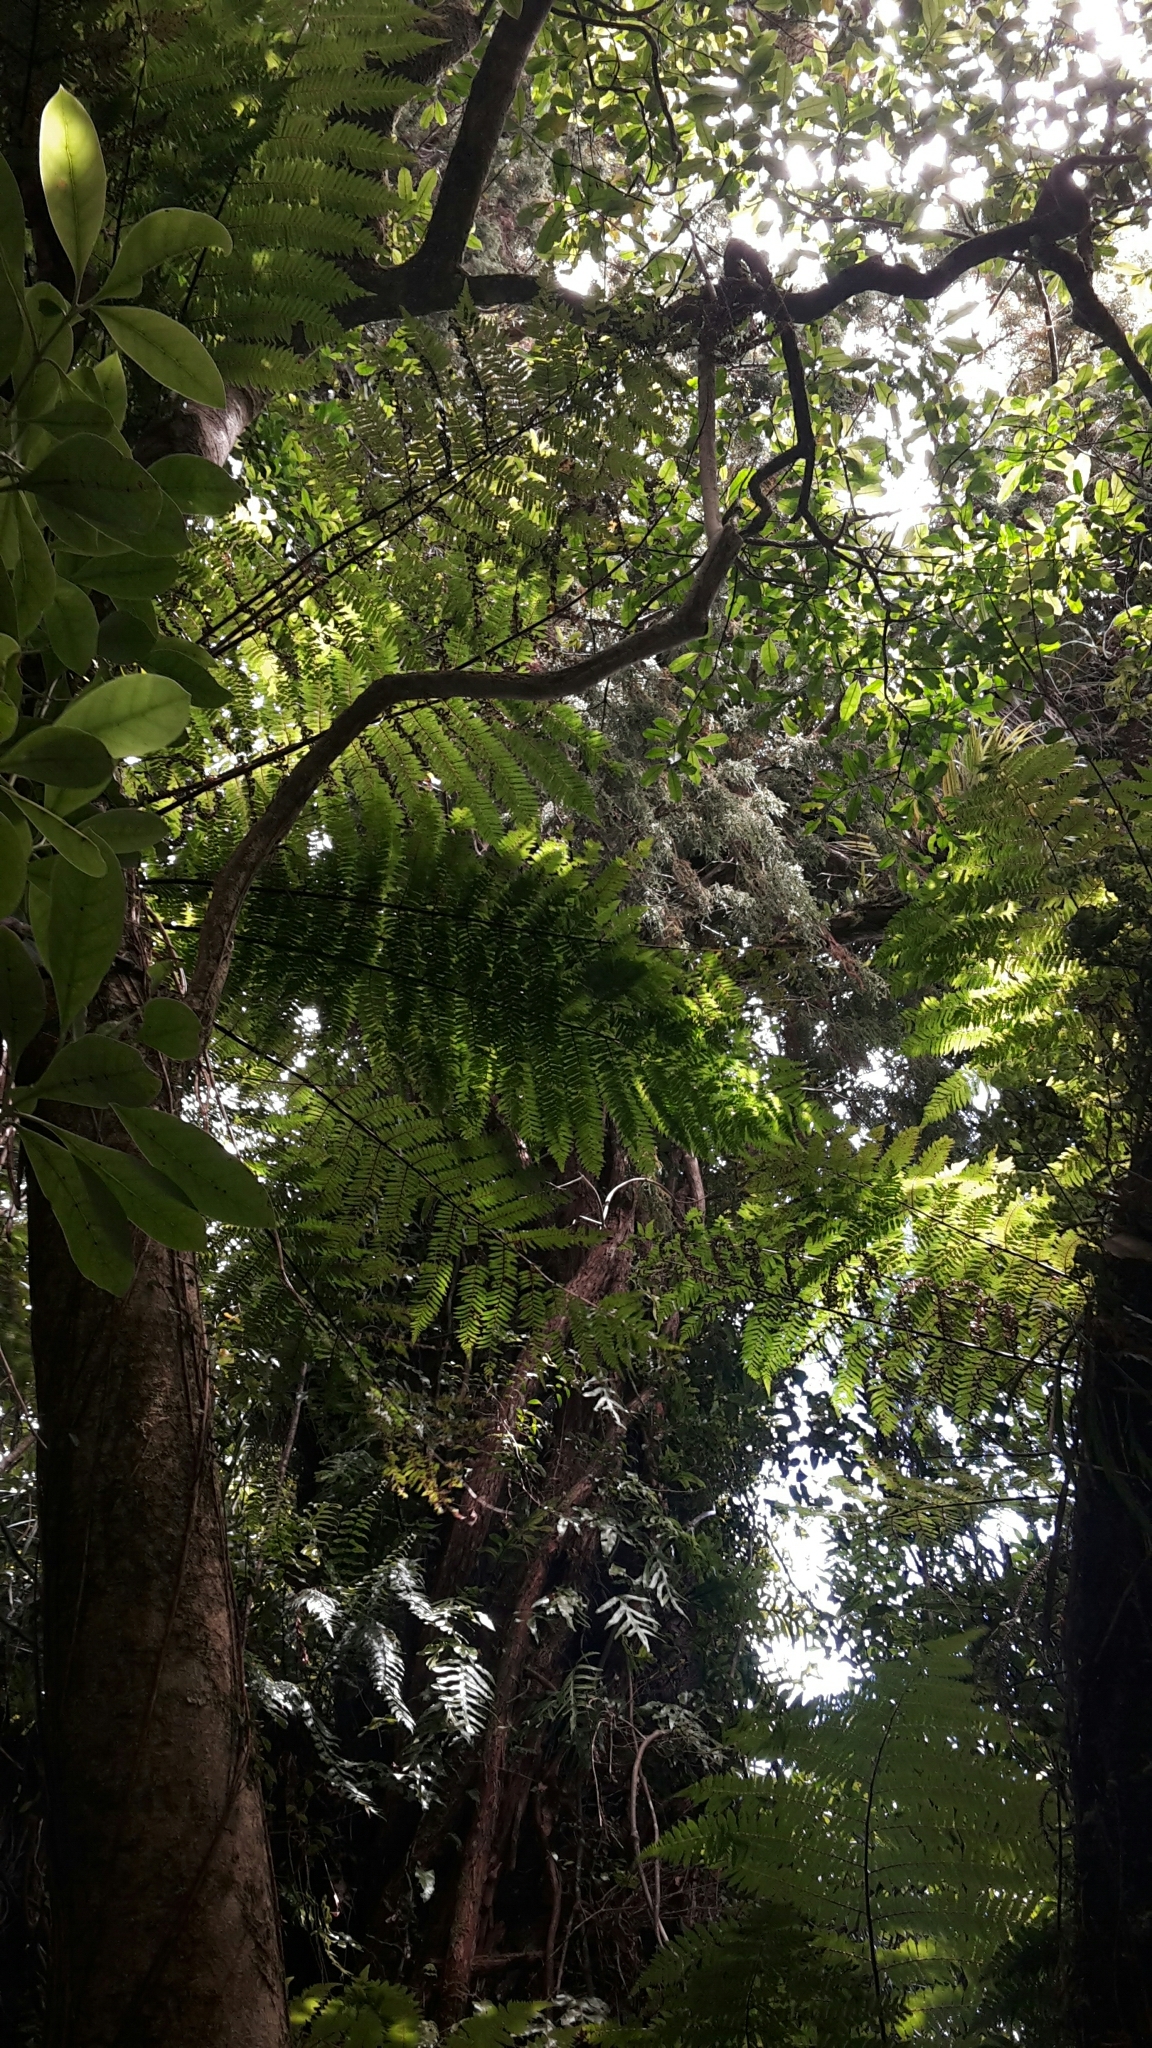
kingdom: Plantae
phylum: Tracheophyta
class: Pinopsida
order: Pinales
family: Podocarpaceae
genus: Dacrydium
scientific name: Dacrydium cupressinum
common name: Red pine
